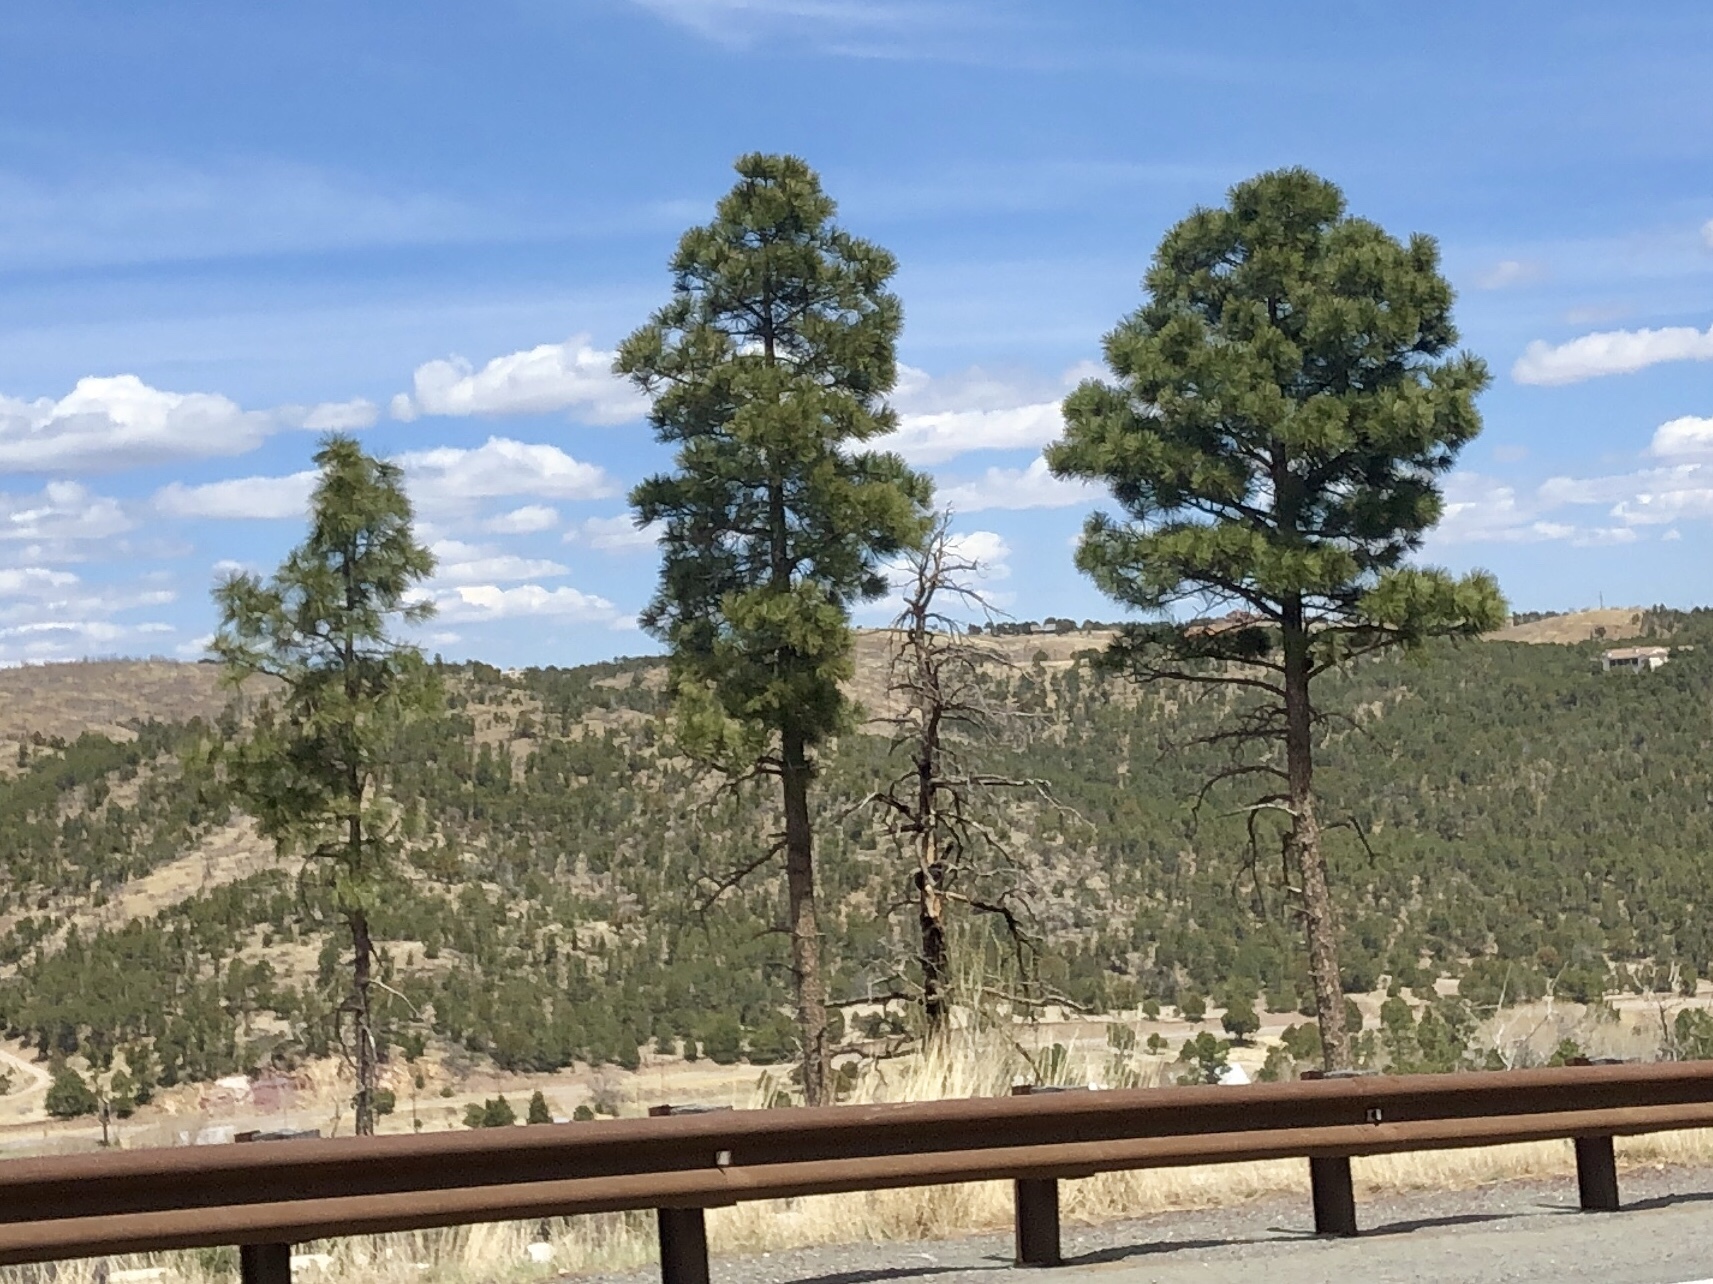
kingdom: Plantae
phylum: Tracheophyta
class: Pinopsida
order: Pinales
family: Pinaceae
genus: Pinus
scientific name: Pinus ponderosa
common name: Western yellow-pine
